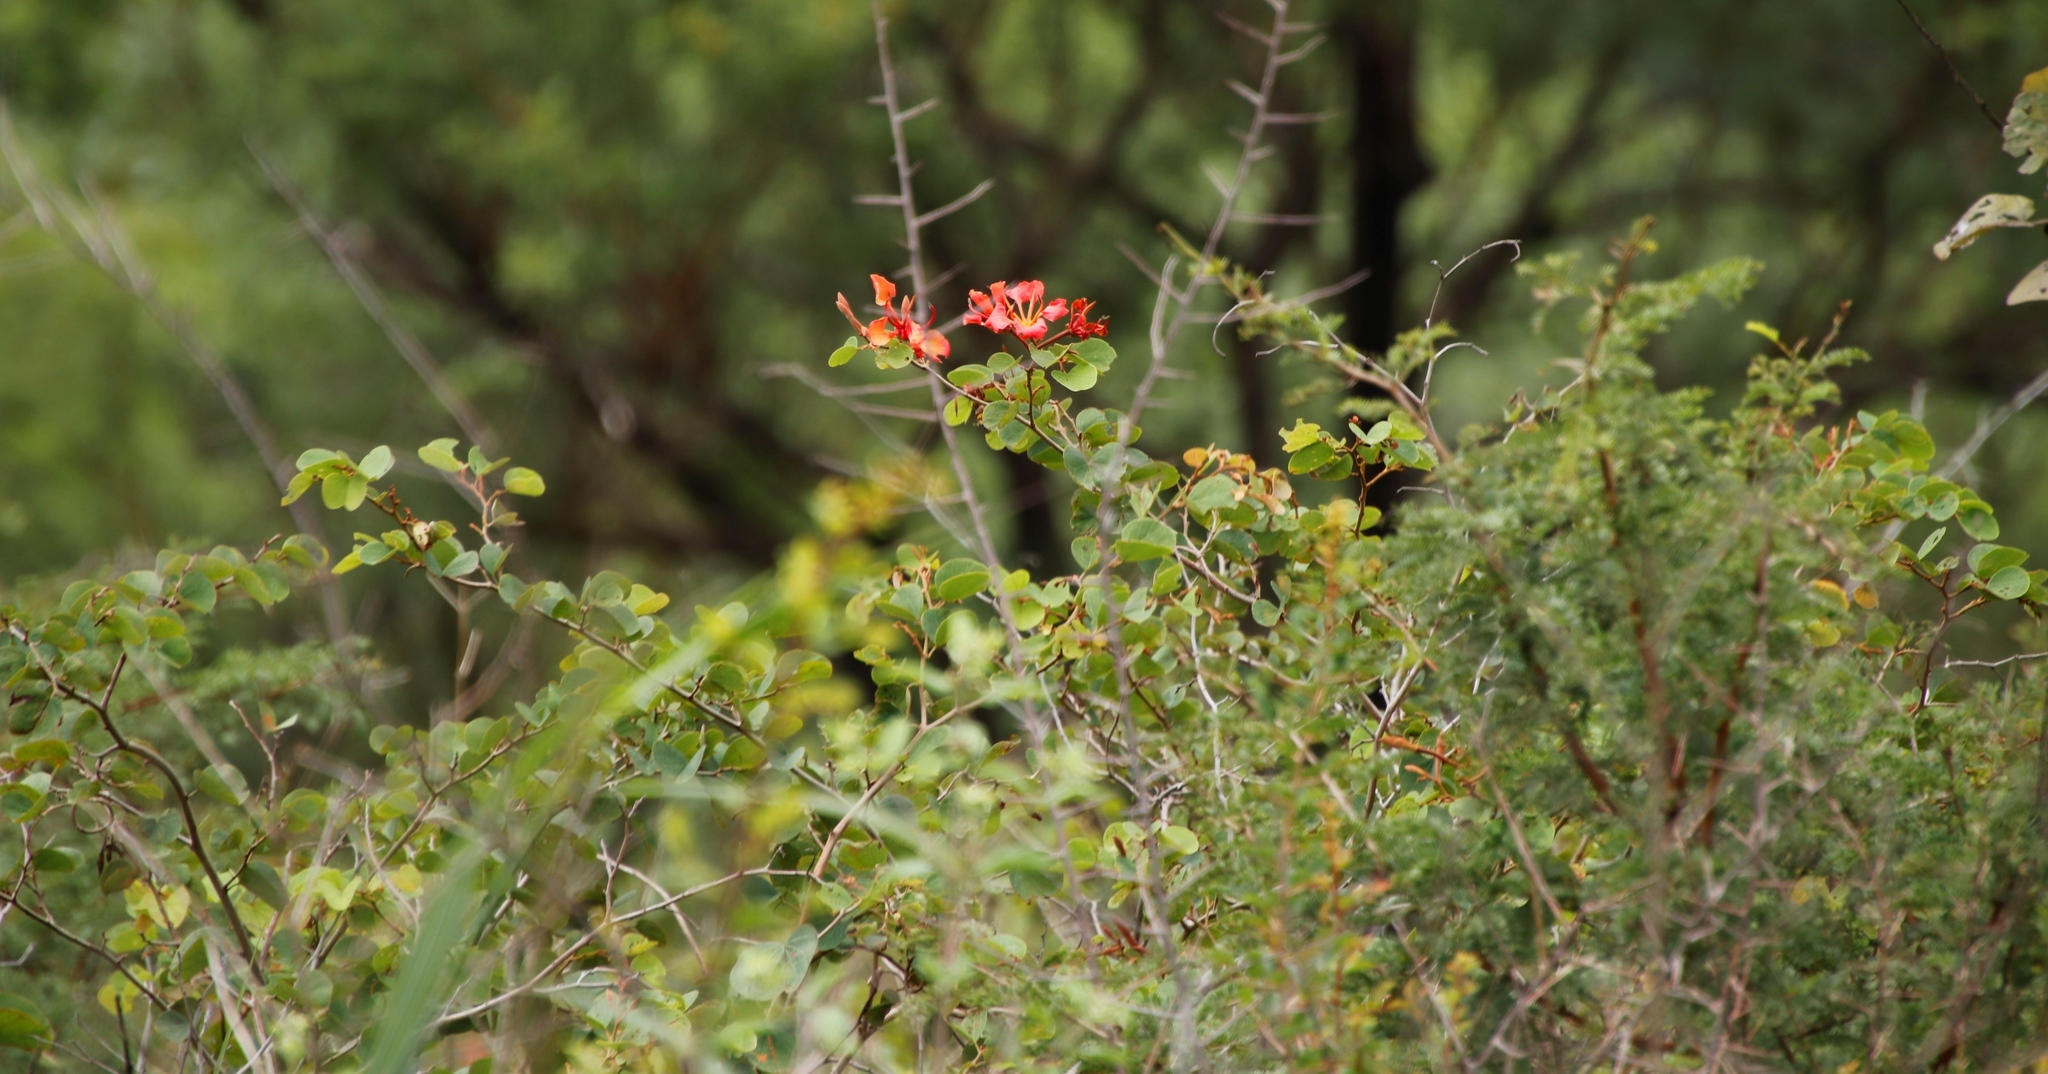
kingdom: Plantae
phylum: Tracheophyta
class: Magnoliopsida
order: Fabales
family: Fabaceae
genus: Bauhinia
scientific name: Bauhinia galpinii
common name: African plume
